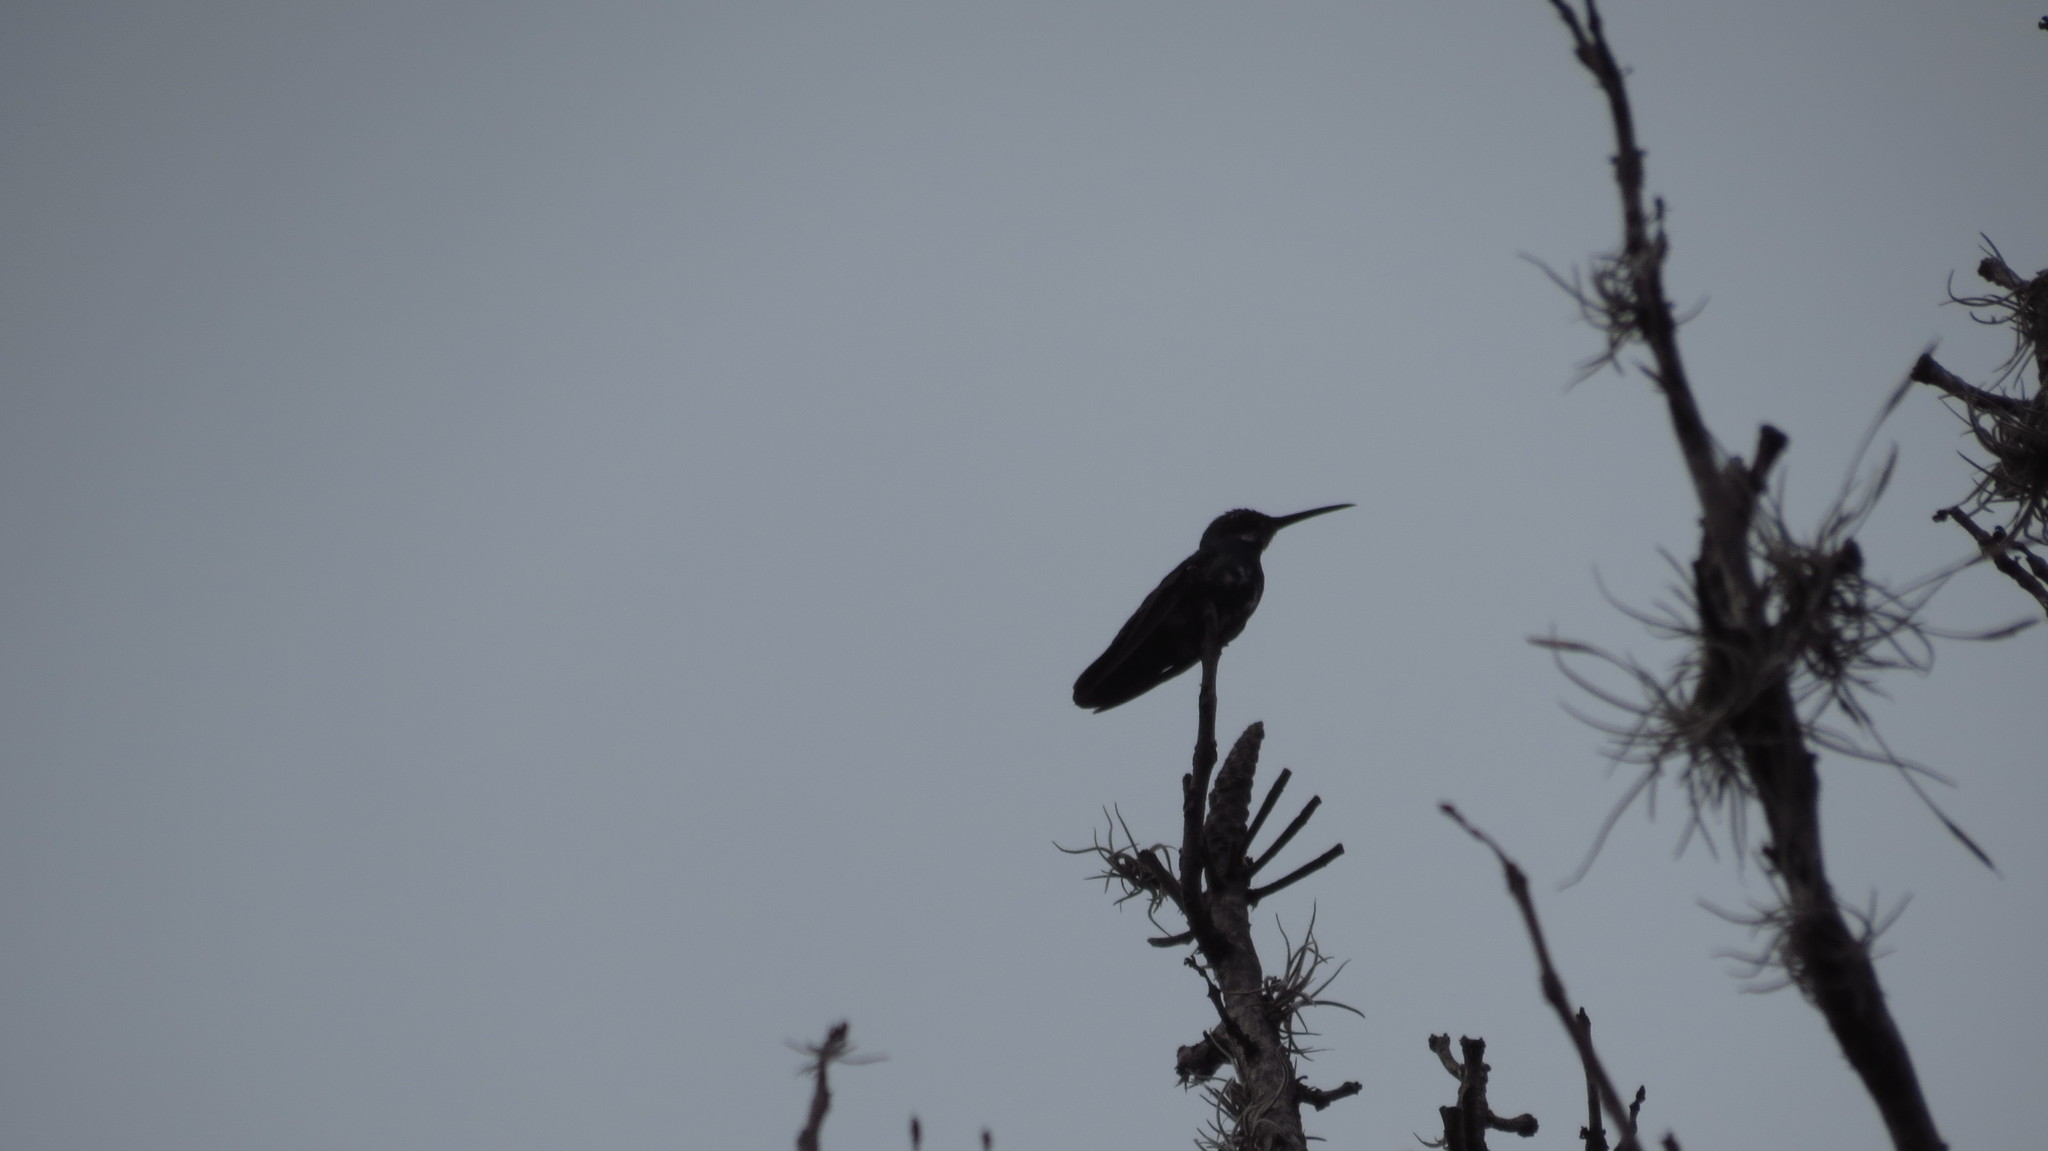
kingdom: Animalia
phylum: Chordata
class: Aves
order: Apodiformes
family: Trochilidae
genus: Anthracothorax
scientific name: Anthracothorax prevostii
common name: Green-breasted mango
